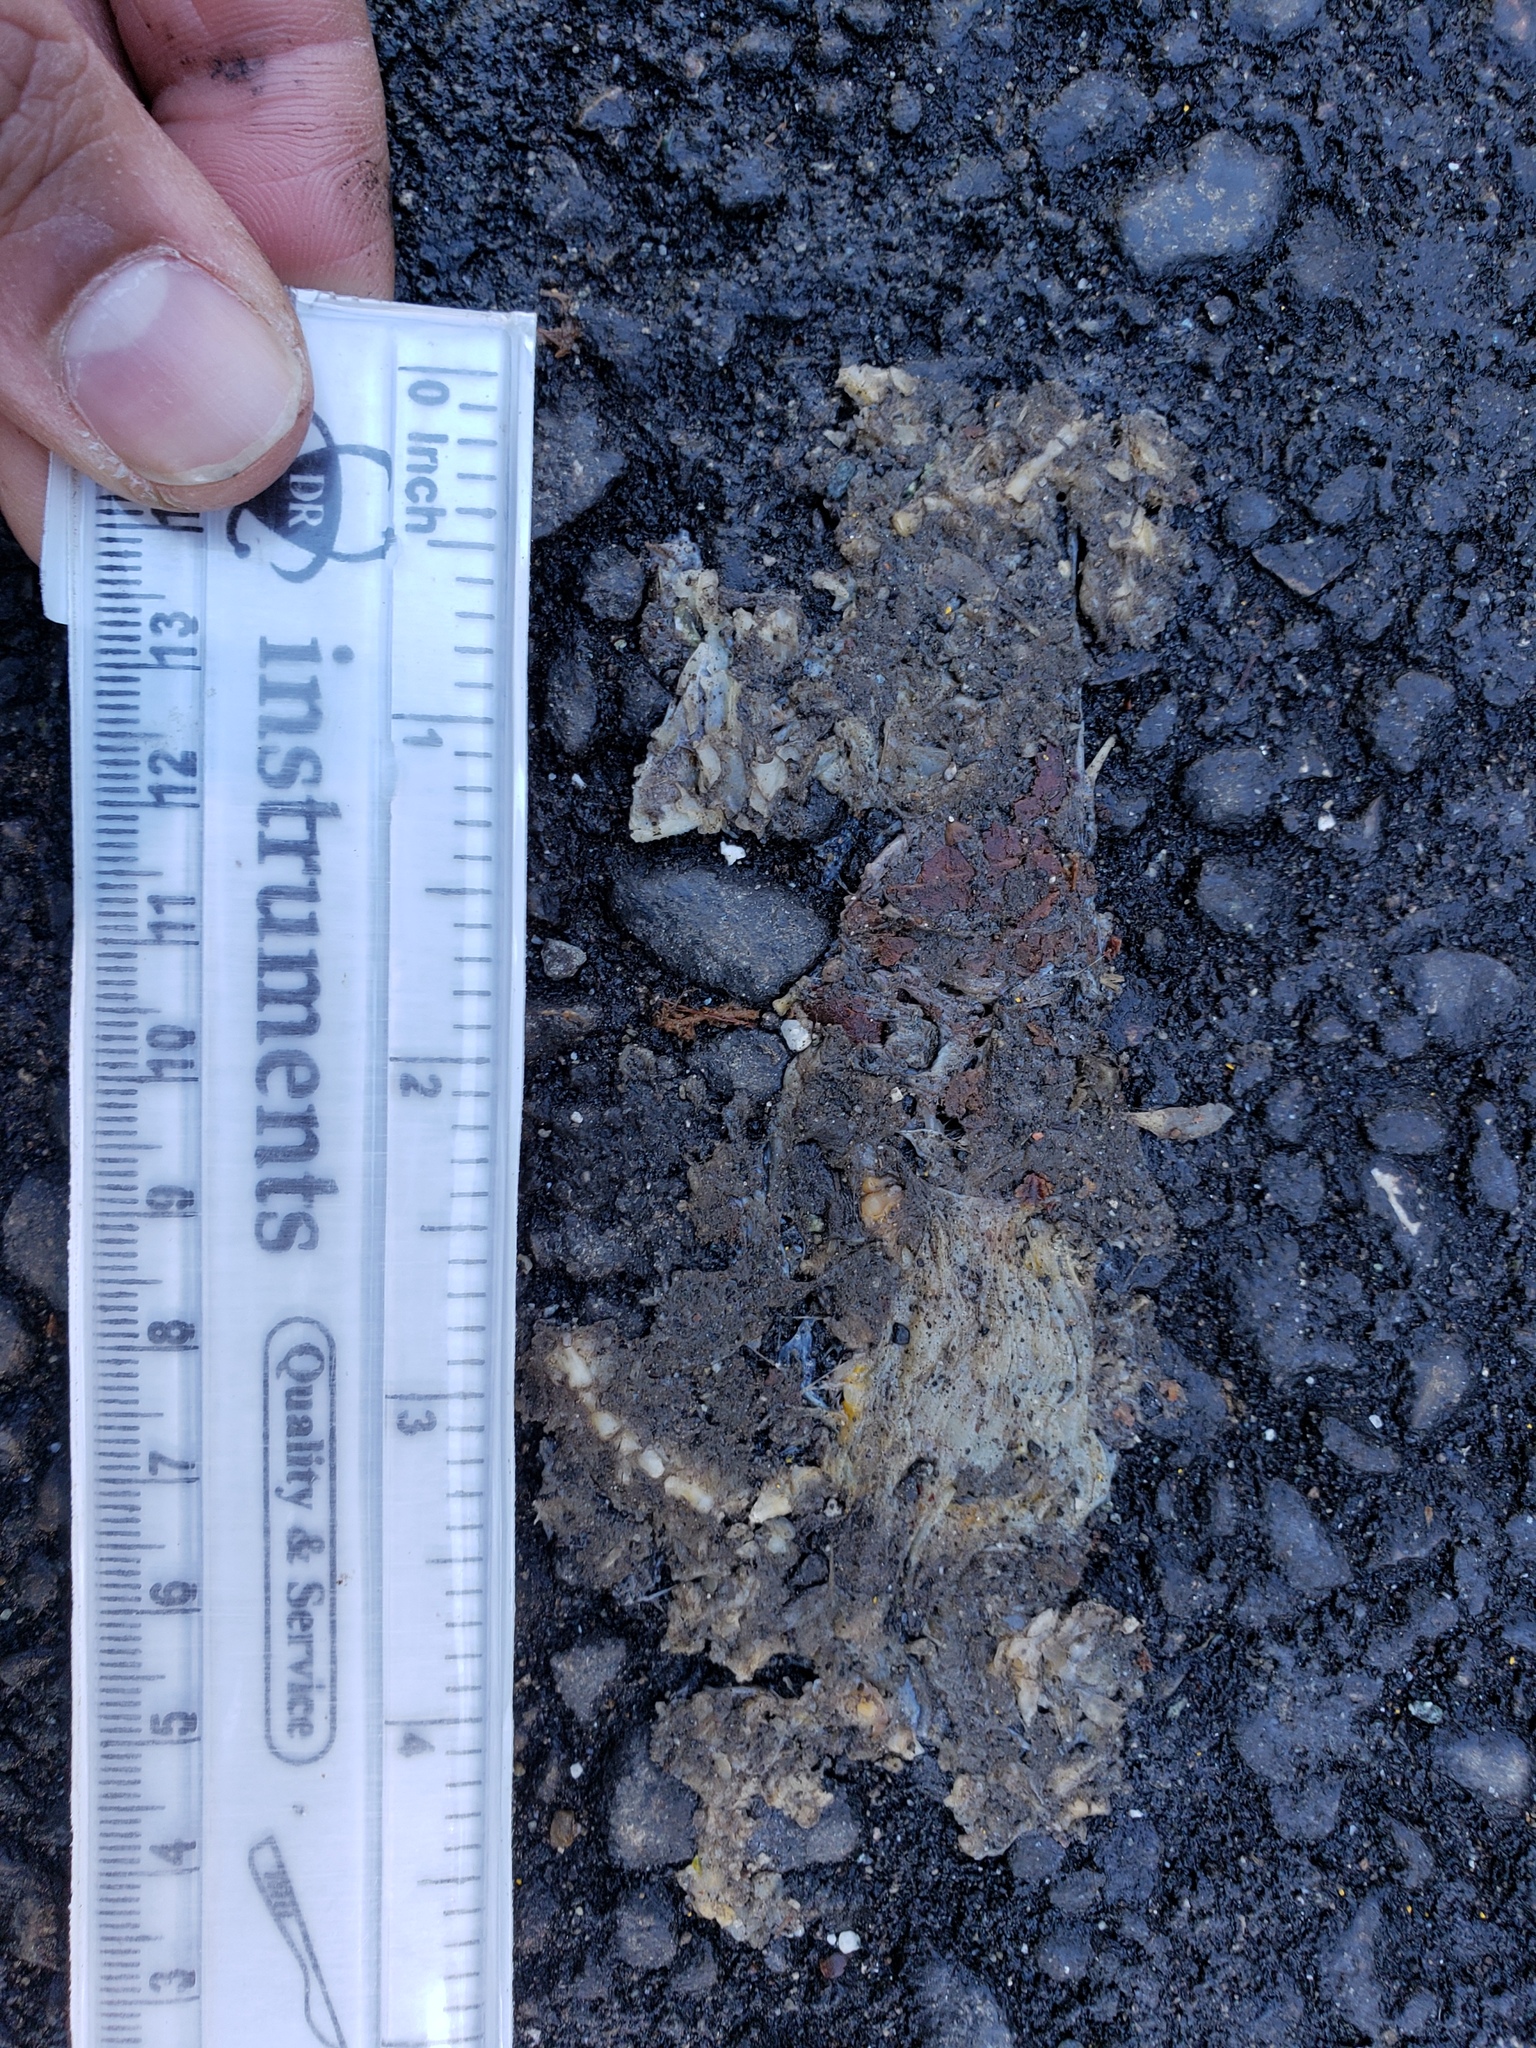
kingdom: Animalia
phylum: Chordata
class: Amphibia
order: Caudata
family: Salamandridae
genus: Taricha
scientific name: Taricha
